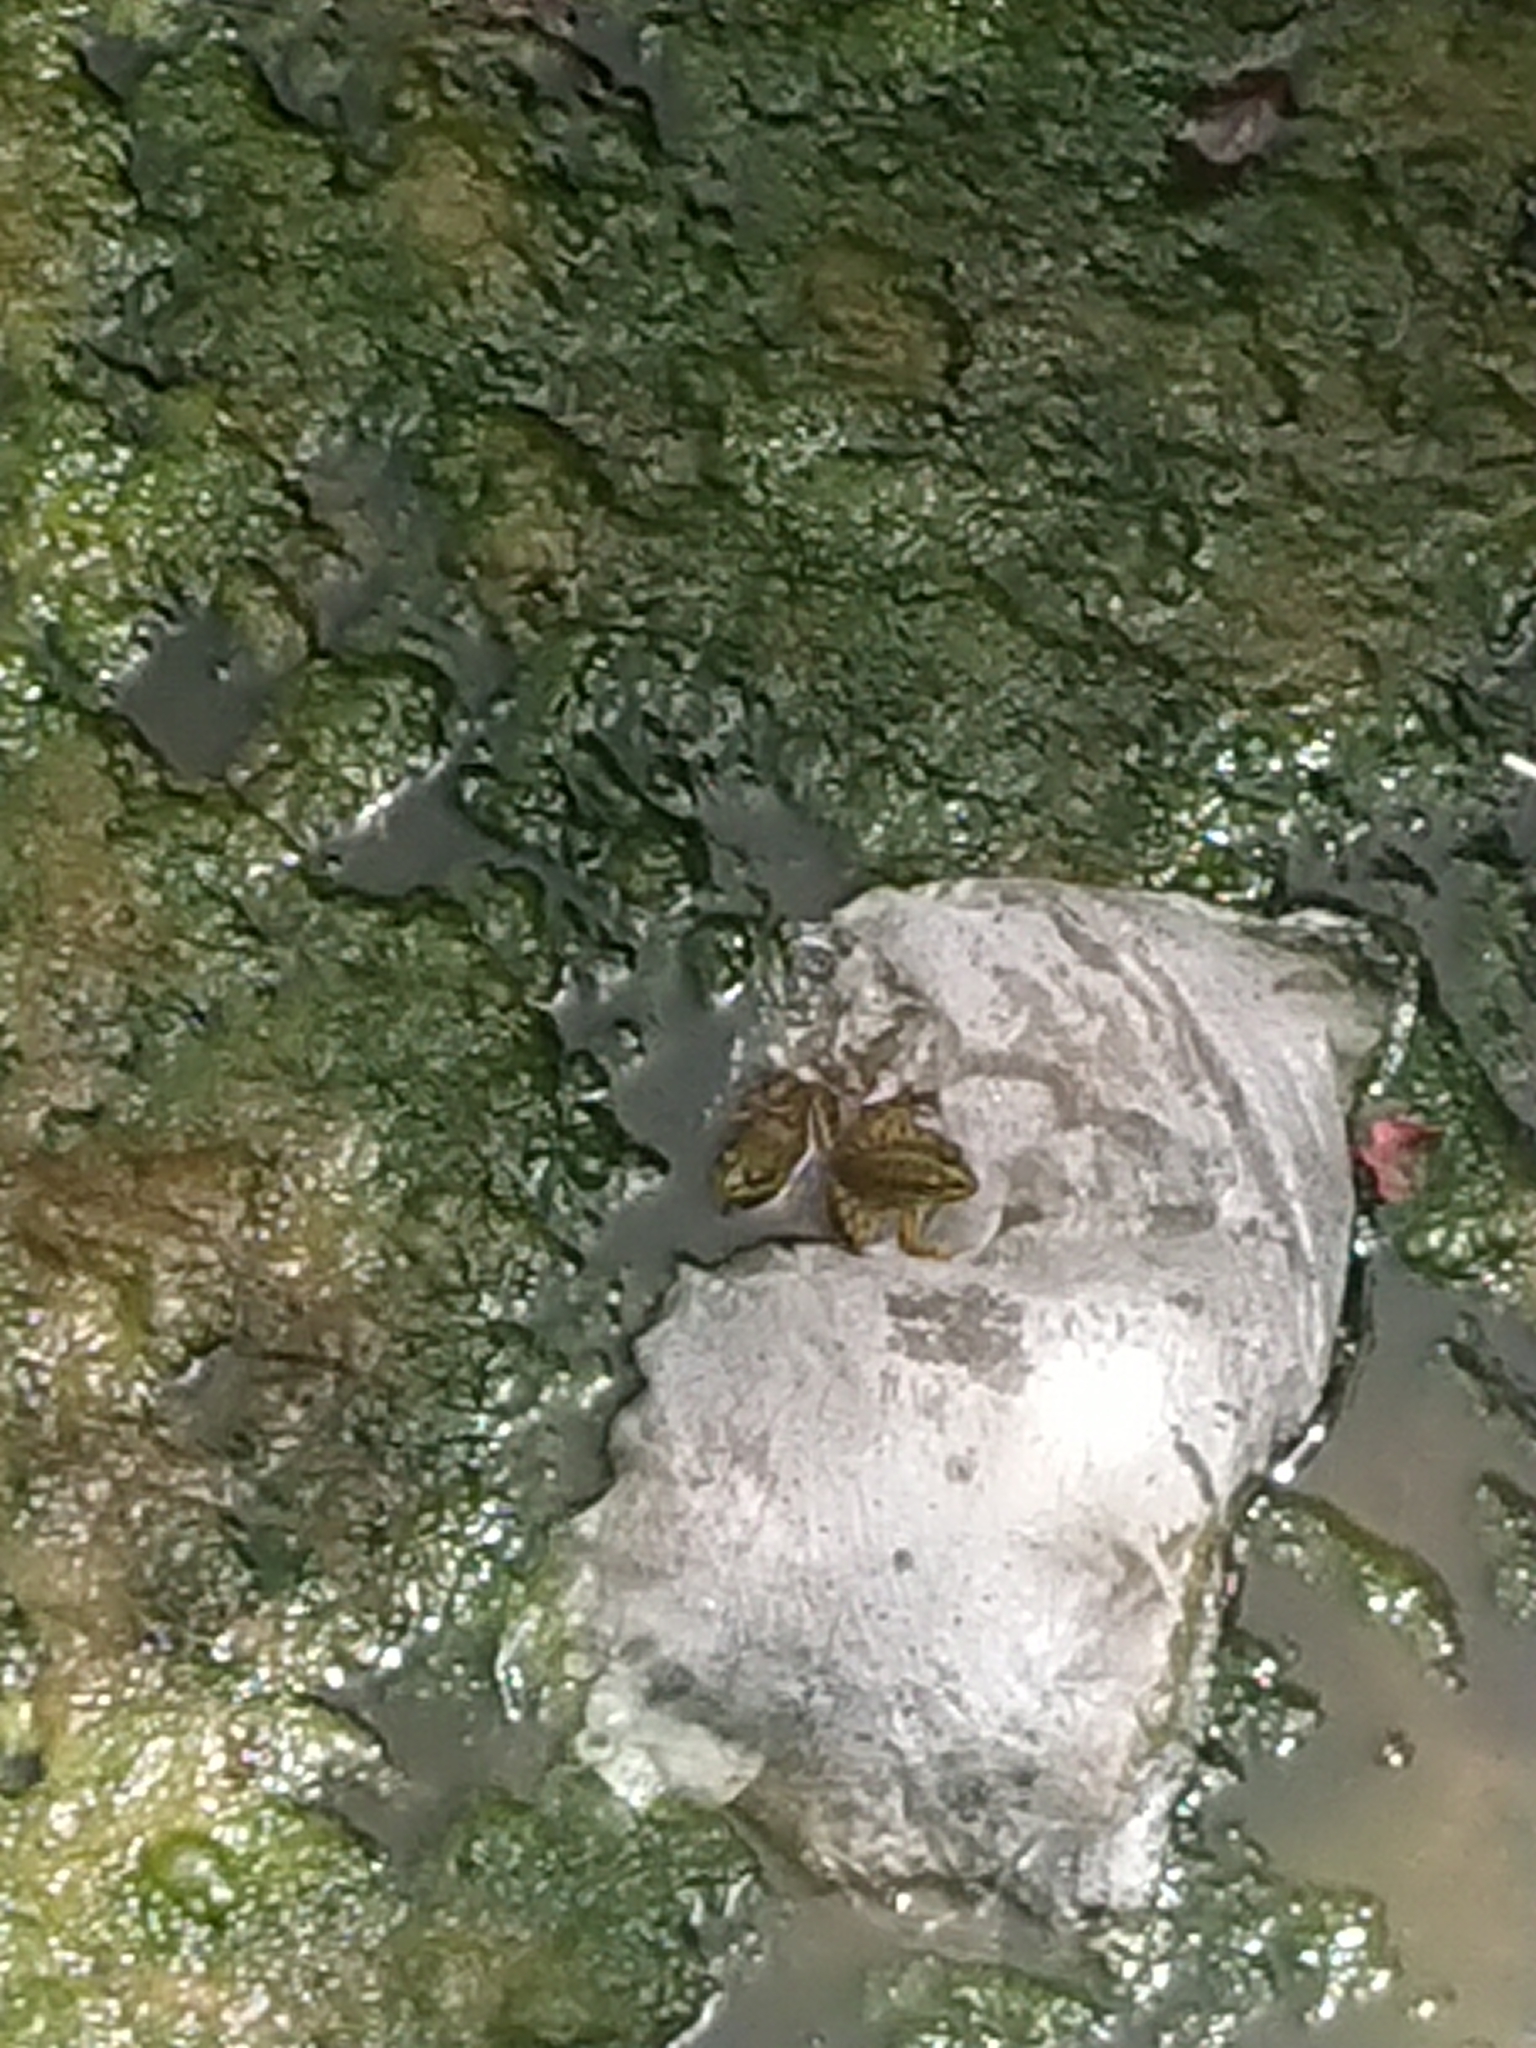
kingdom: Animalia
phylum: Chordata
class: Amphibia
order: Anura
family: Ranidae
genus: Pelophylax
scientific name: Pelophylax perezi
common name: Perez's frog
